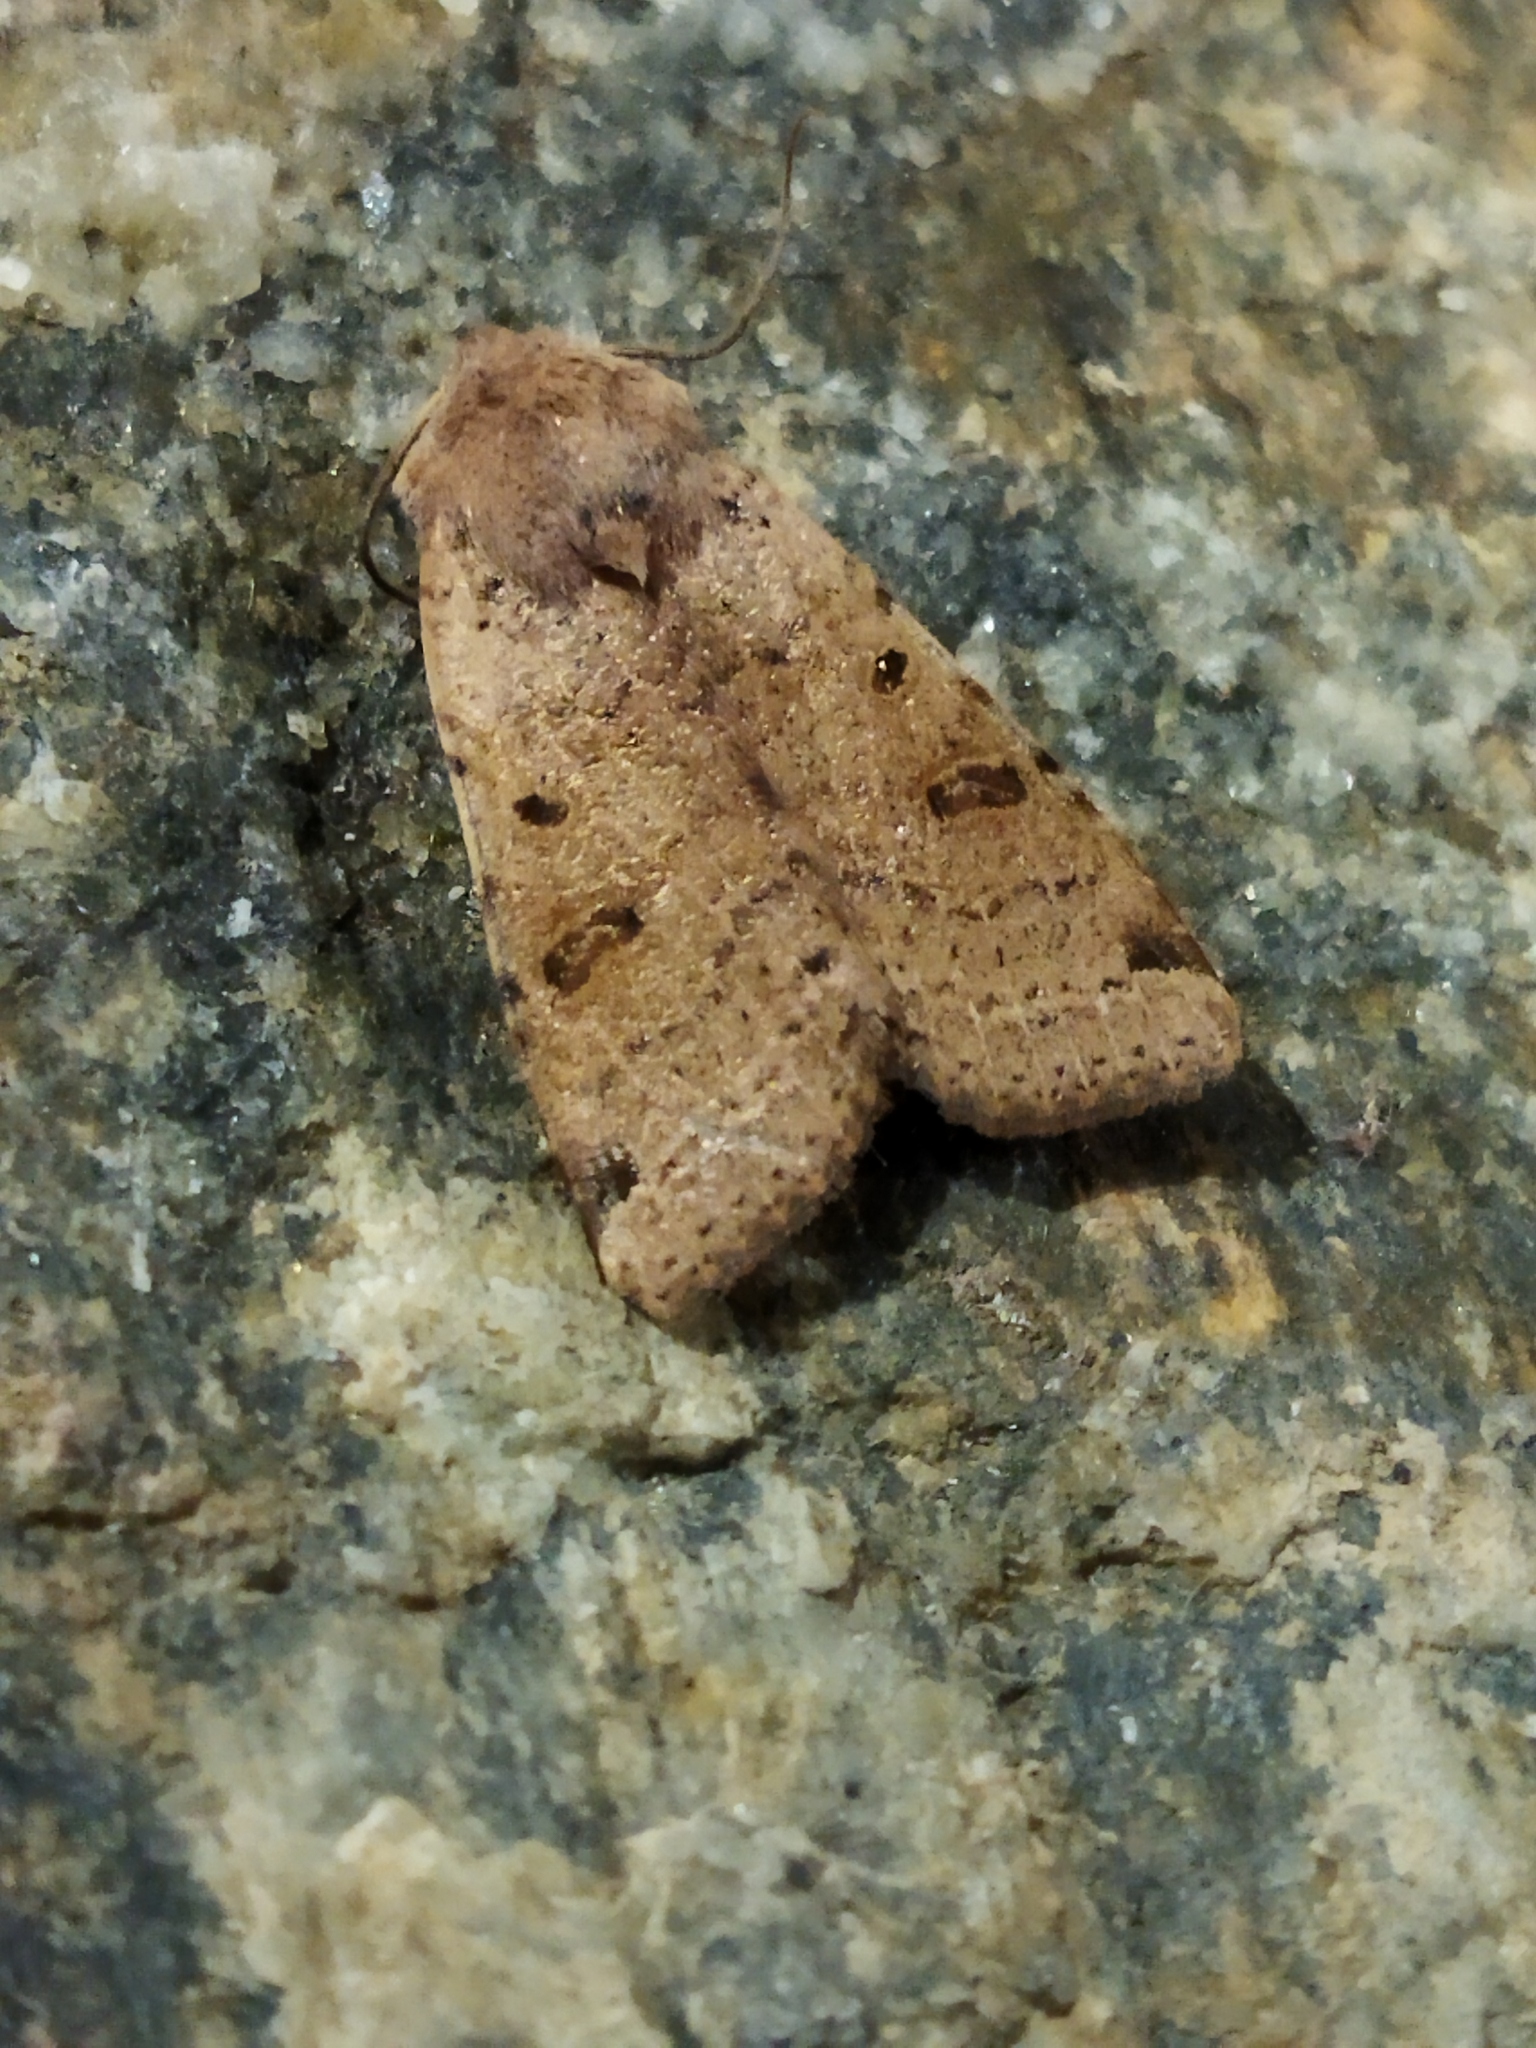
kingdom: Animalia
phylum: Arthropoda
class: Insecta
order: Lepidoptera
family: Noctuidae
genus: Agrochola
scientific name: Agrochola lychnidis
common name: Beaded chestnut
